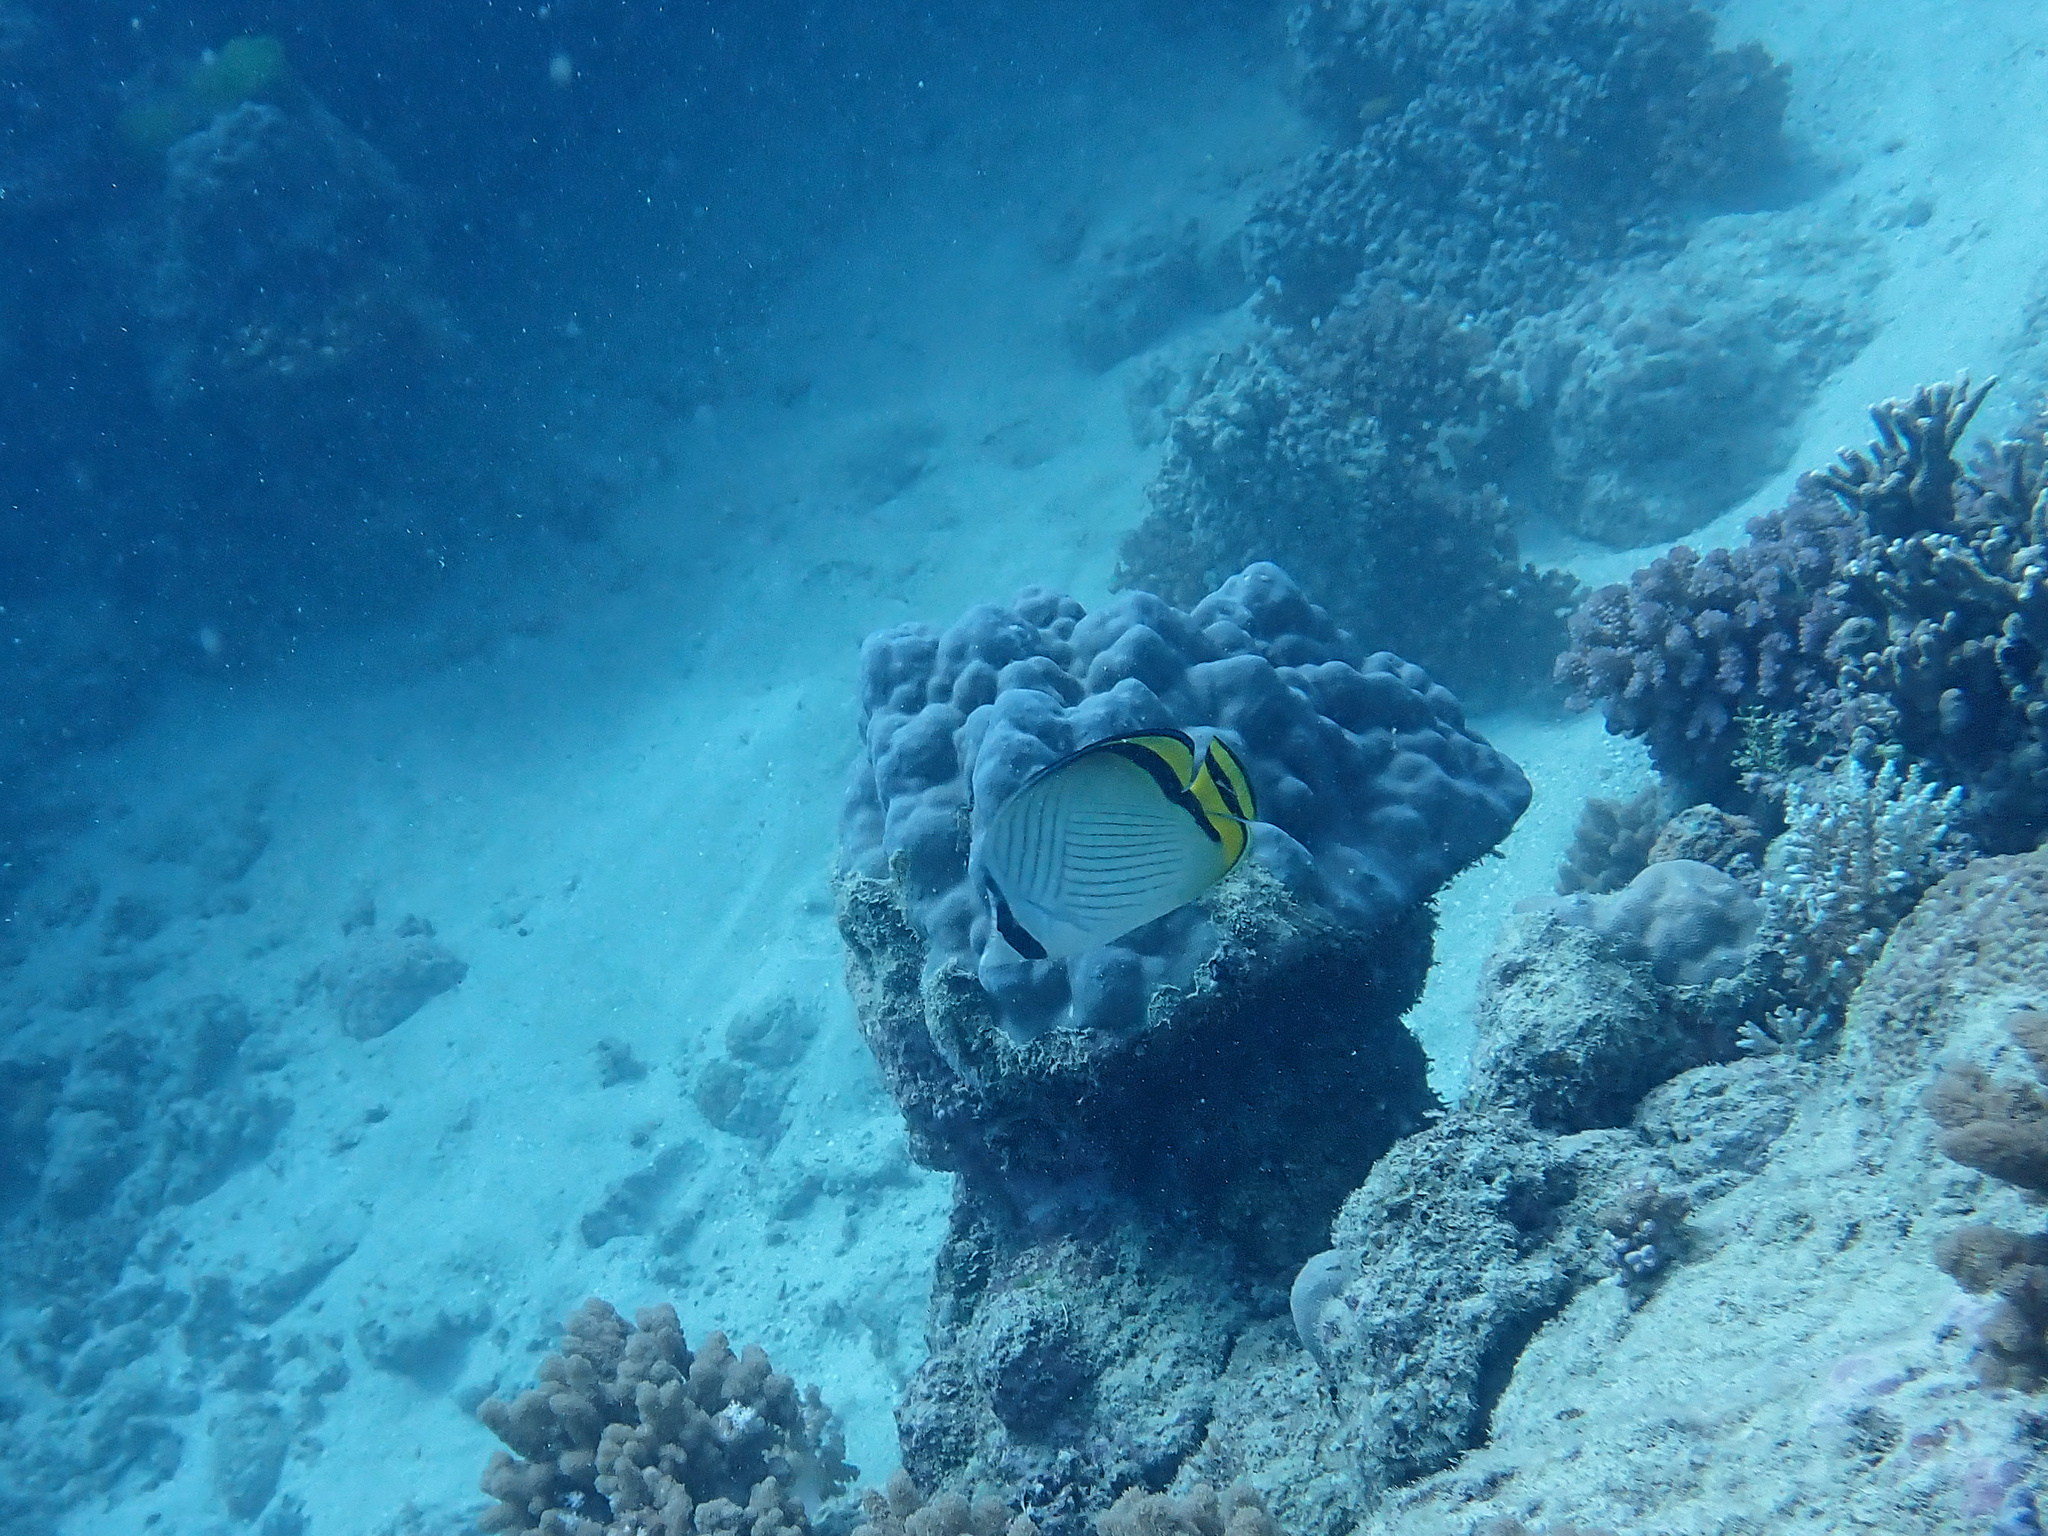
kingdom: Animalia
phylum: Chordata
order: Perciformes
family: Chaetodontidae
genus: Chaetodon
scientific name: Chaetodon vagabundus
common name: Vagabond butterflyfish
